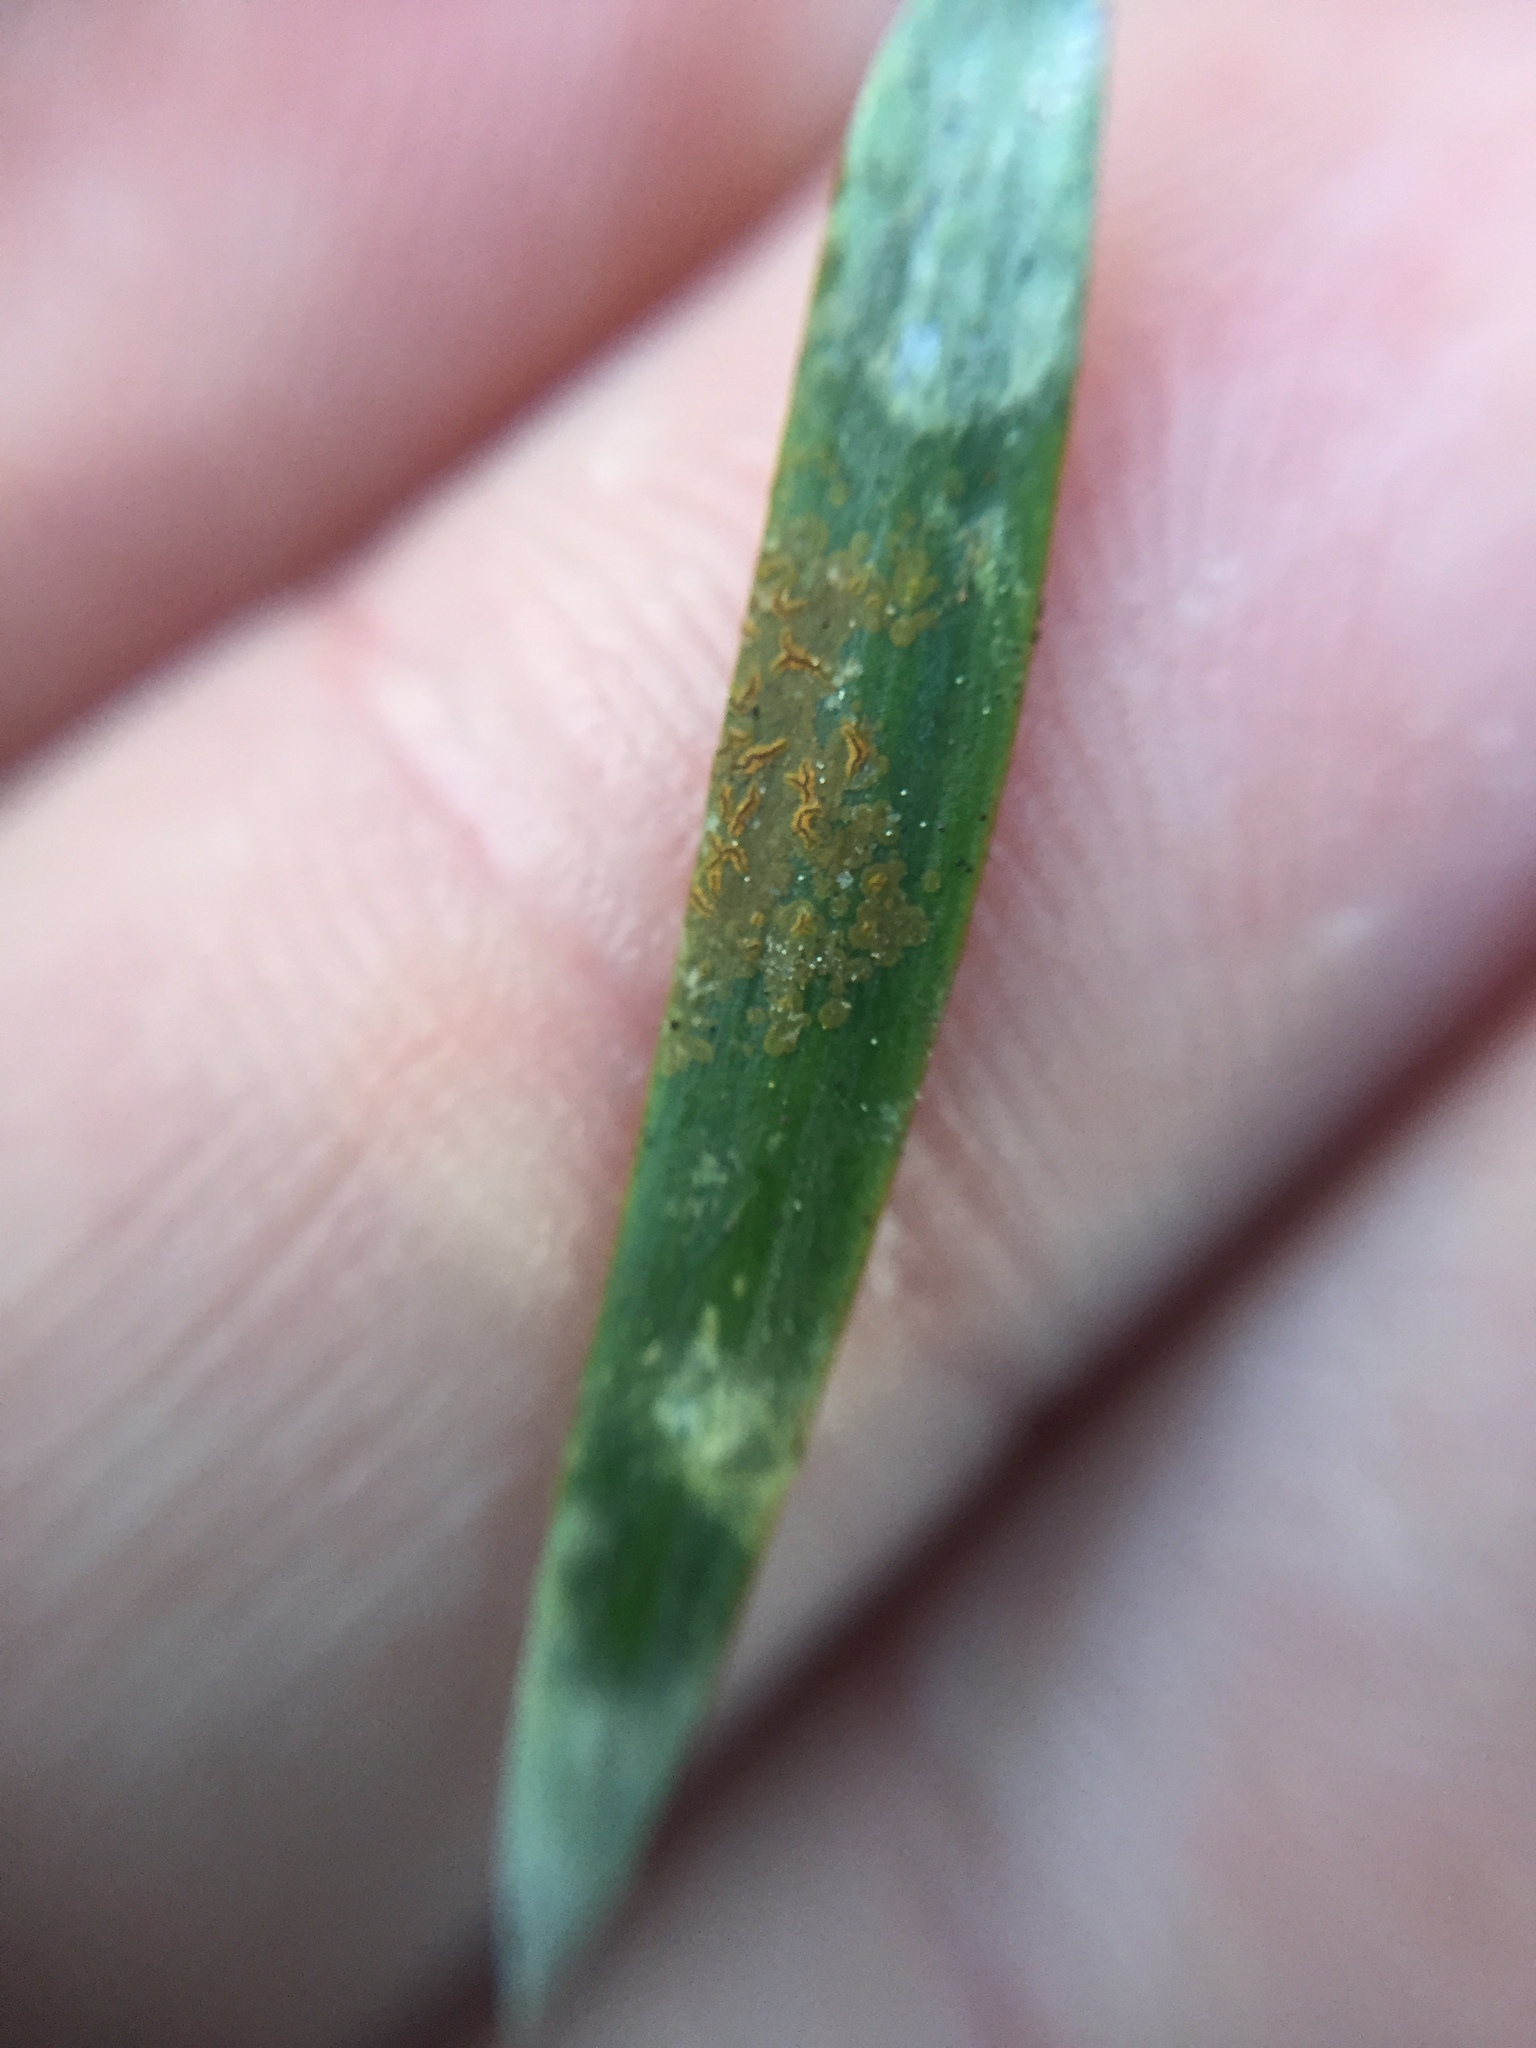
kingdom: Fungi
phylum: Ascomycota
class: Arthoniomycetes
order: Arthoniales
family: Roccellaceae
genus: Enterographa
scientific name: Enterographa bella
